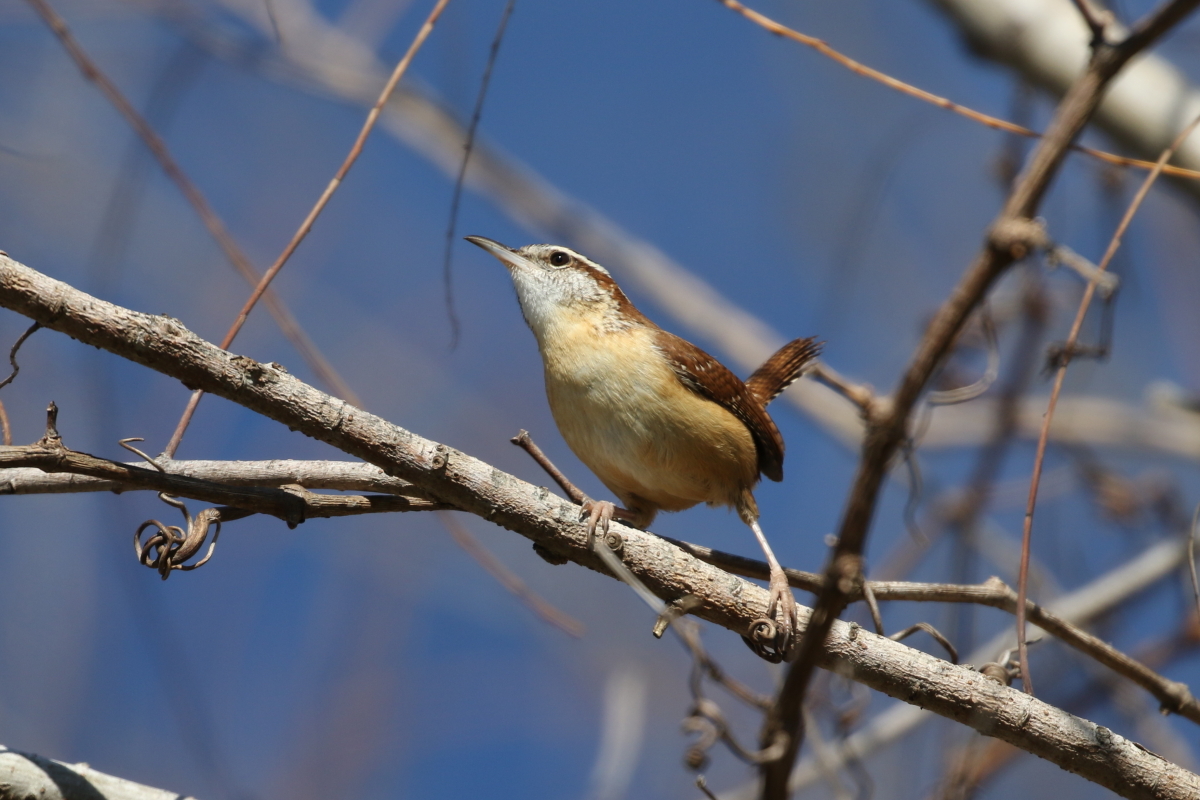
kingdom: Animalia
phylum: Chordata
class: Aves
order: Passeriformes
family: Troglodytidae
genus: Thryothorus
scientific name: Thryothorus ludovicianus
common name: Carolina wren
